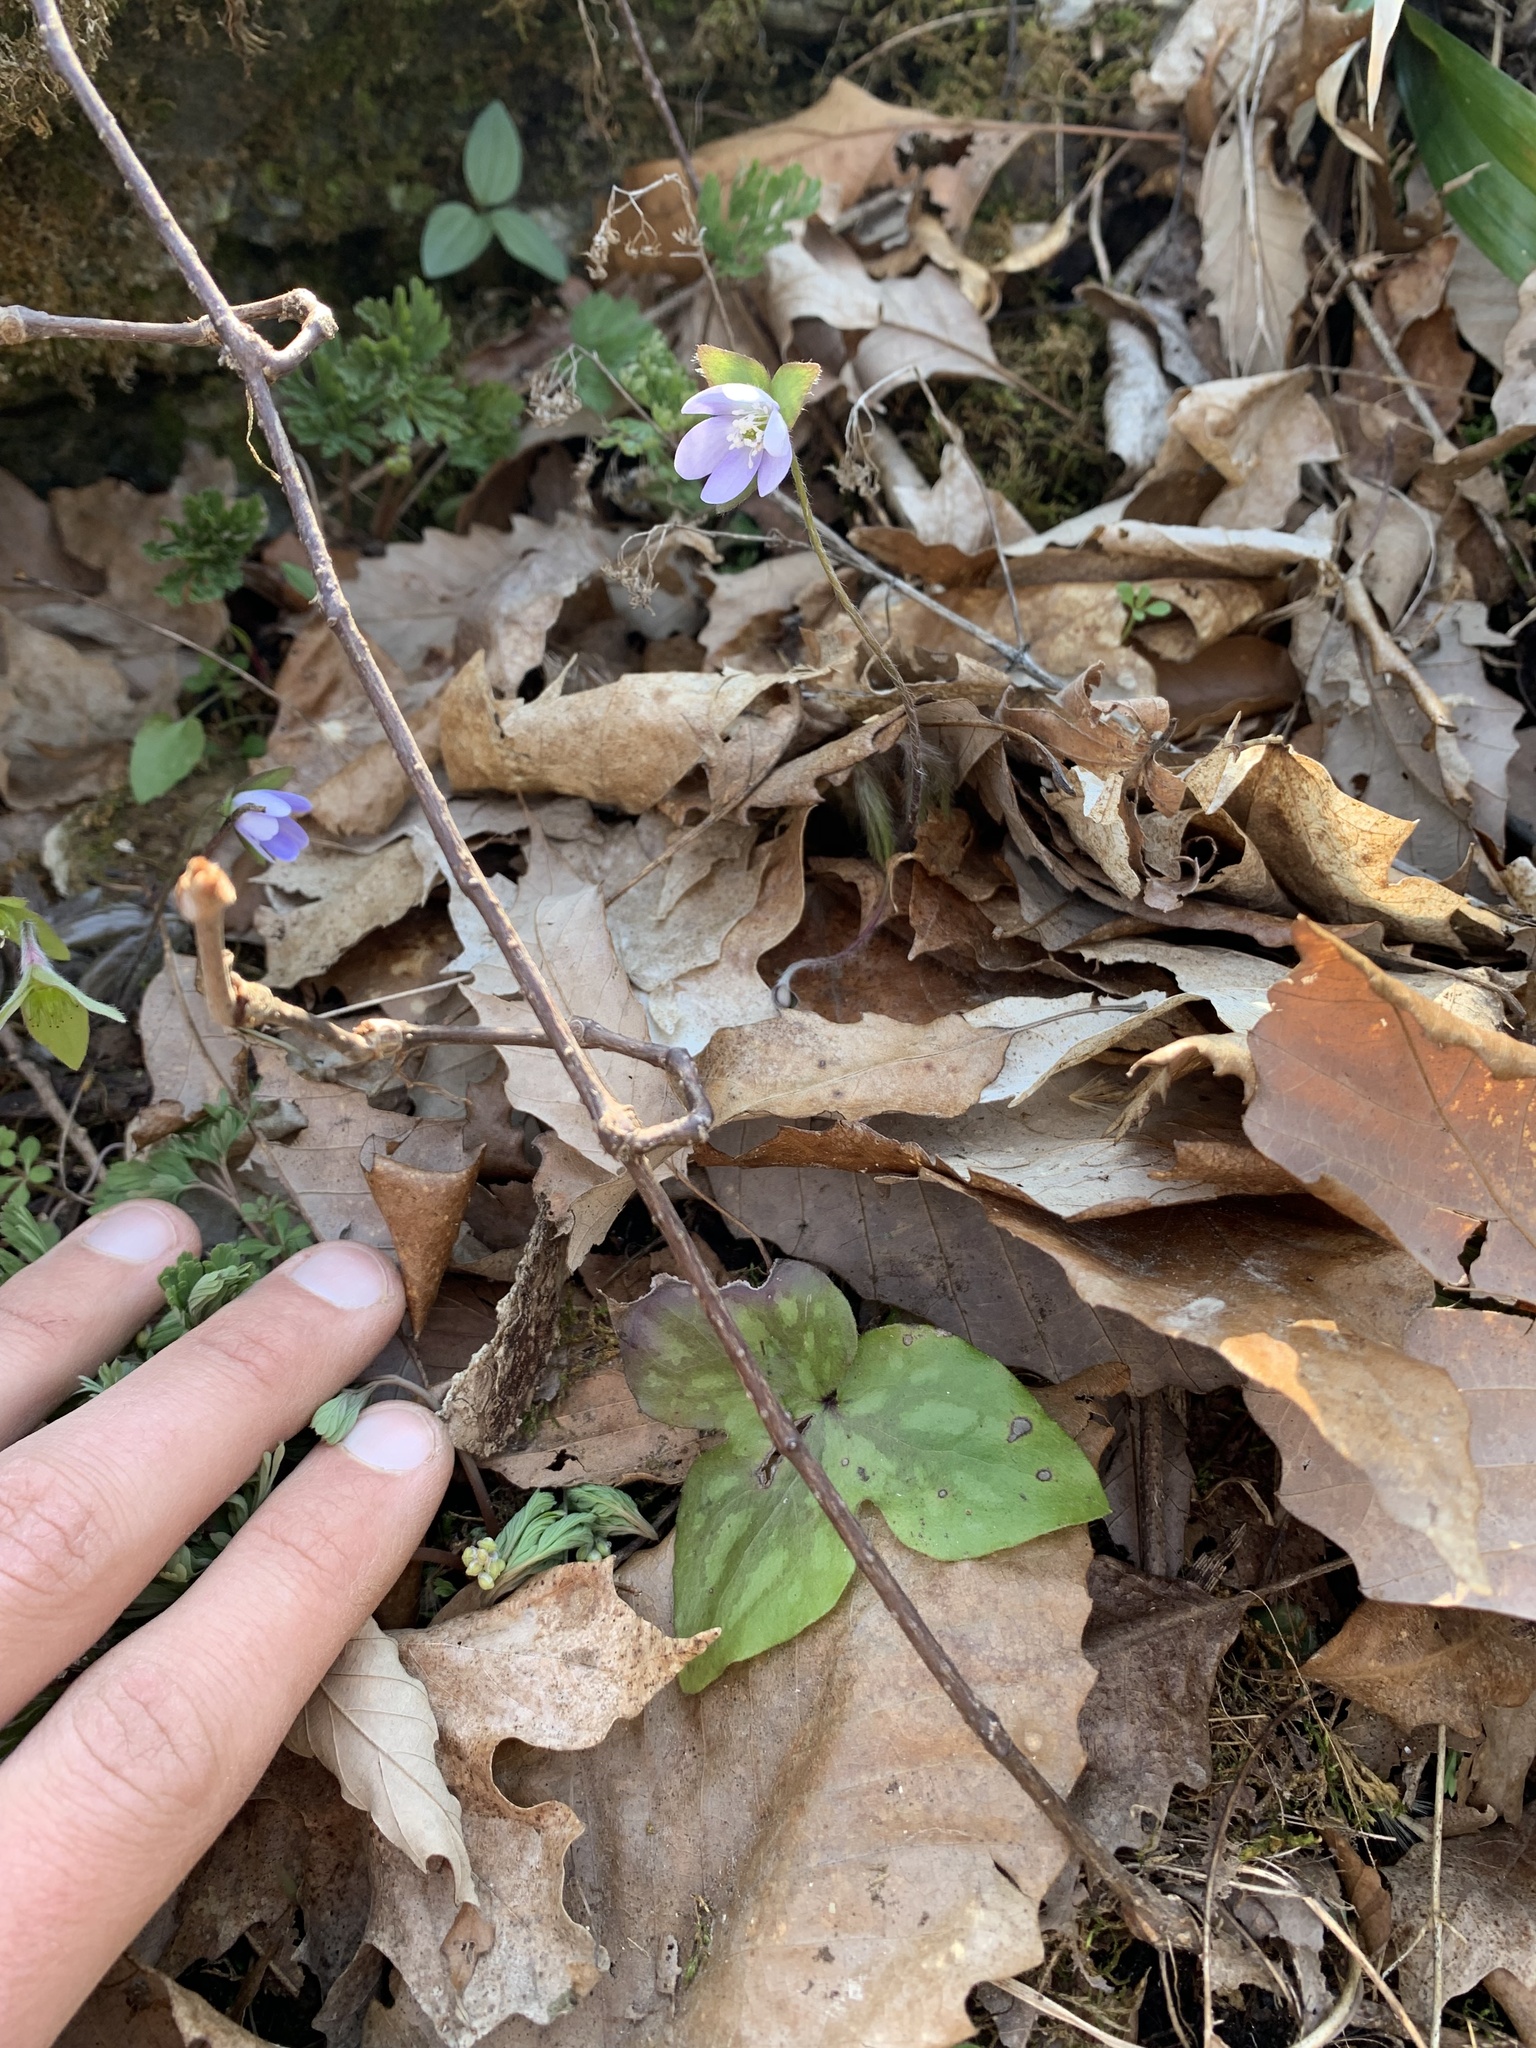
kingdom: Plantae
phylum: Tracheophyta
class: Magnoliopsida
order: Ranunculales
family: Ranunculaceae
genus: Hepatica
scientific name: Hepatica acutiloba
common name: Sharp-lobed hepatica
